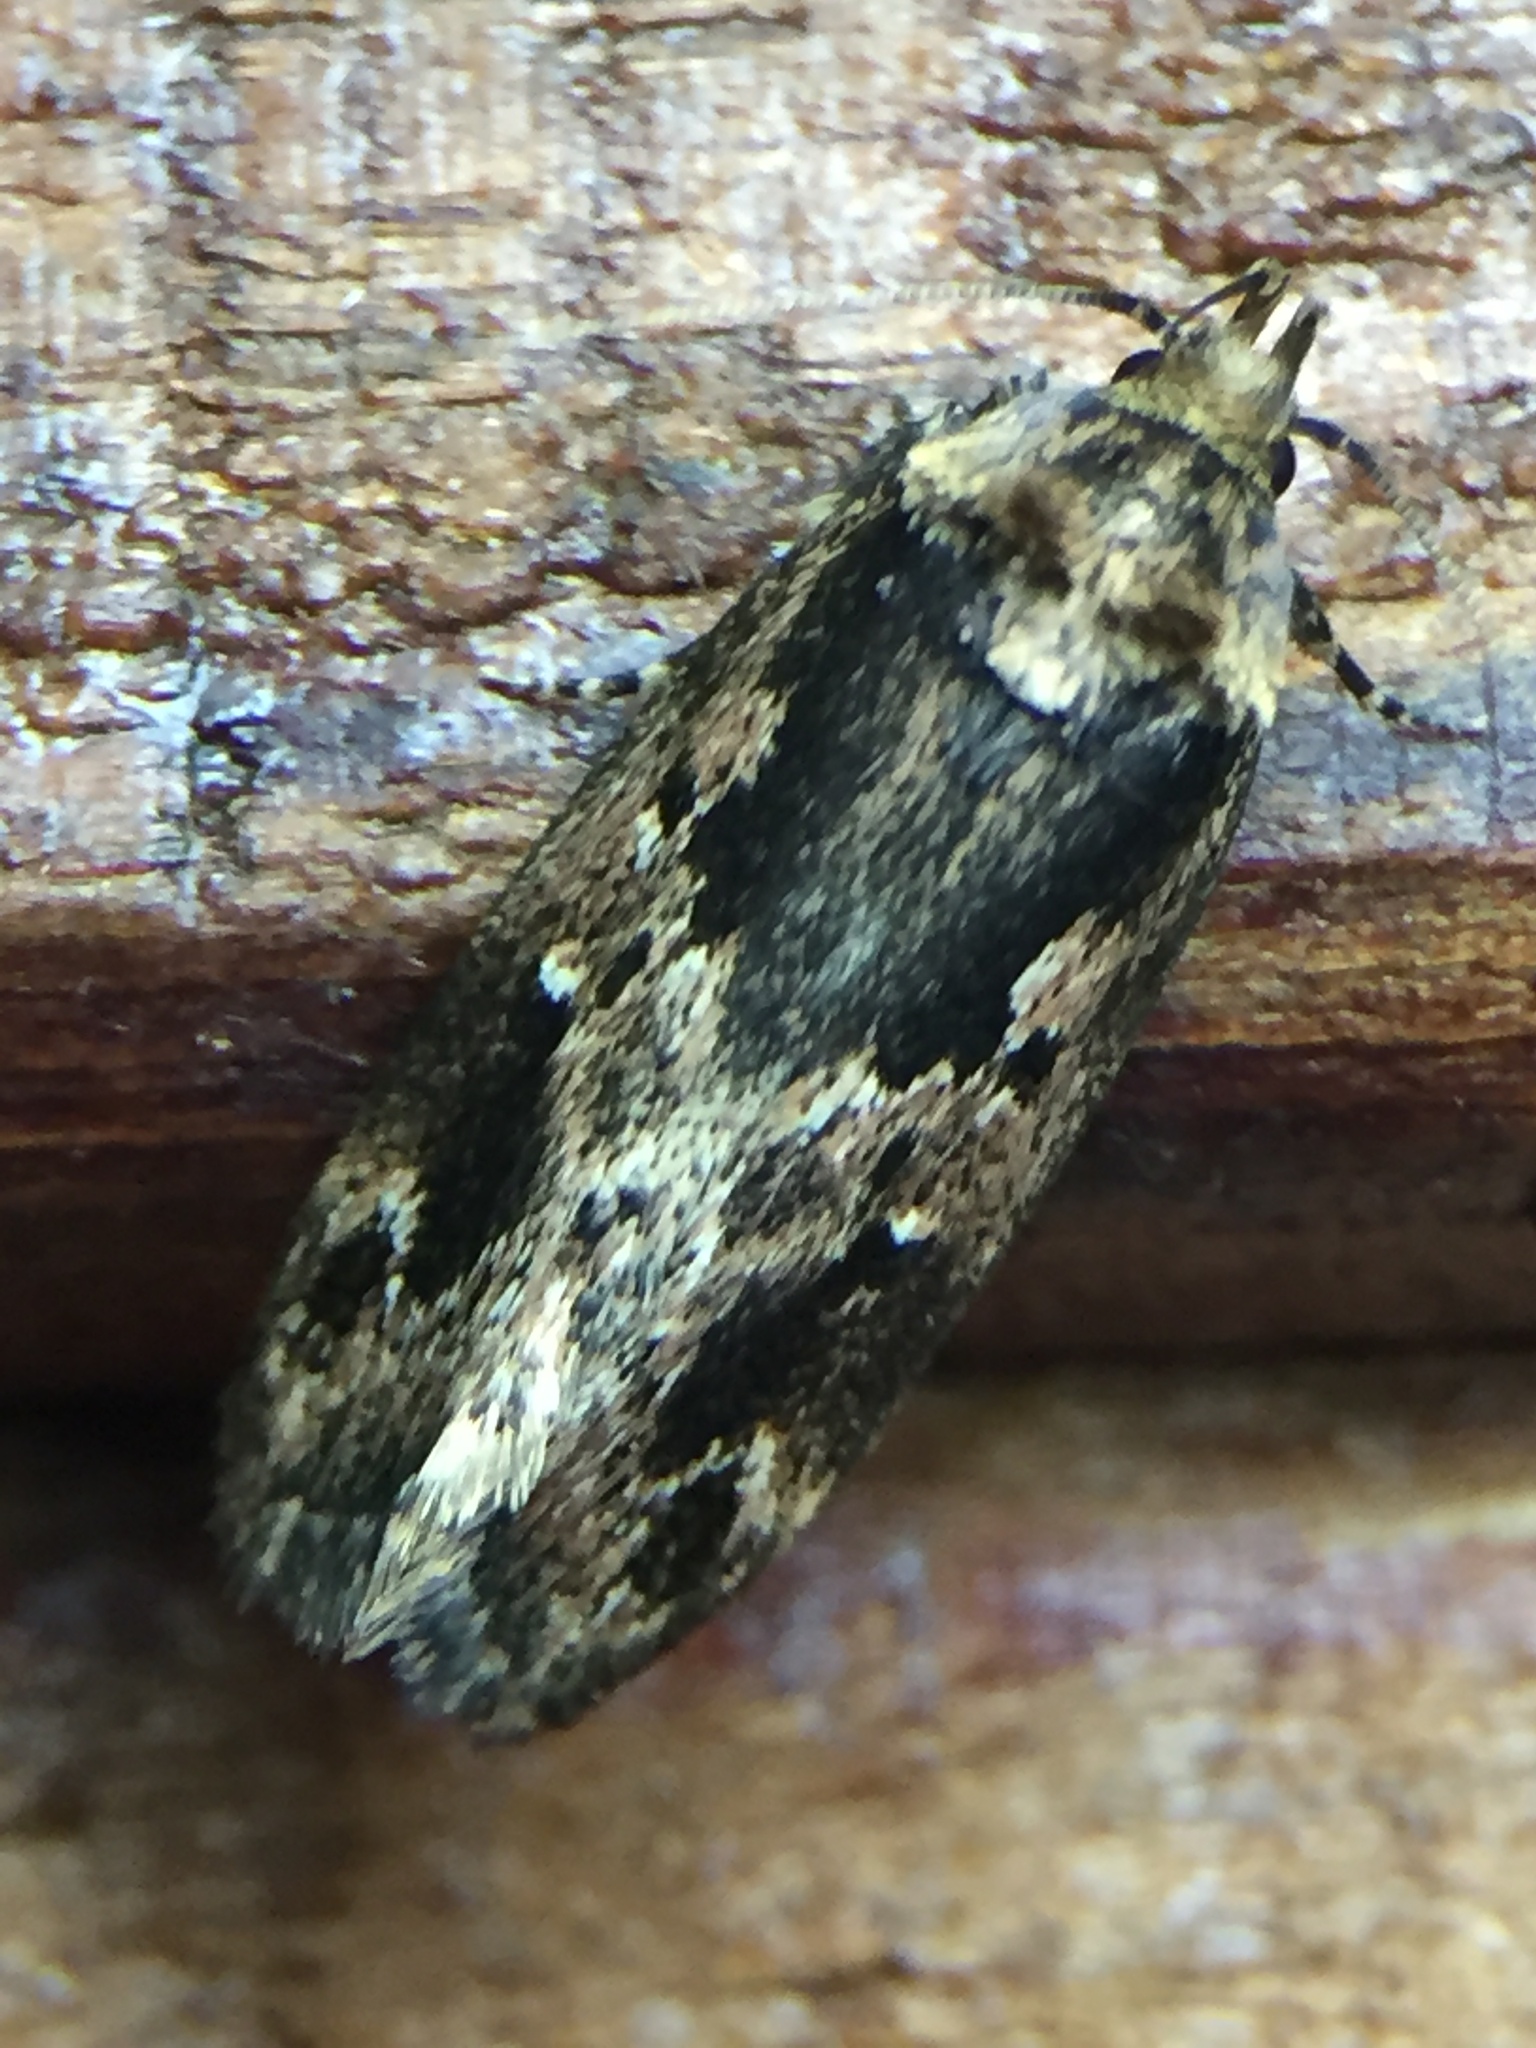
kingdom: Animalia
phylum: Arthropoda
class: Insecta
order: Lepidoptera
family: Oecophoridae
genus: Barea
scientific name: Barea consignatella
